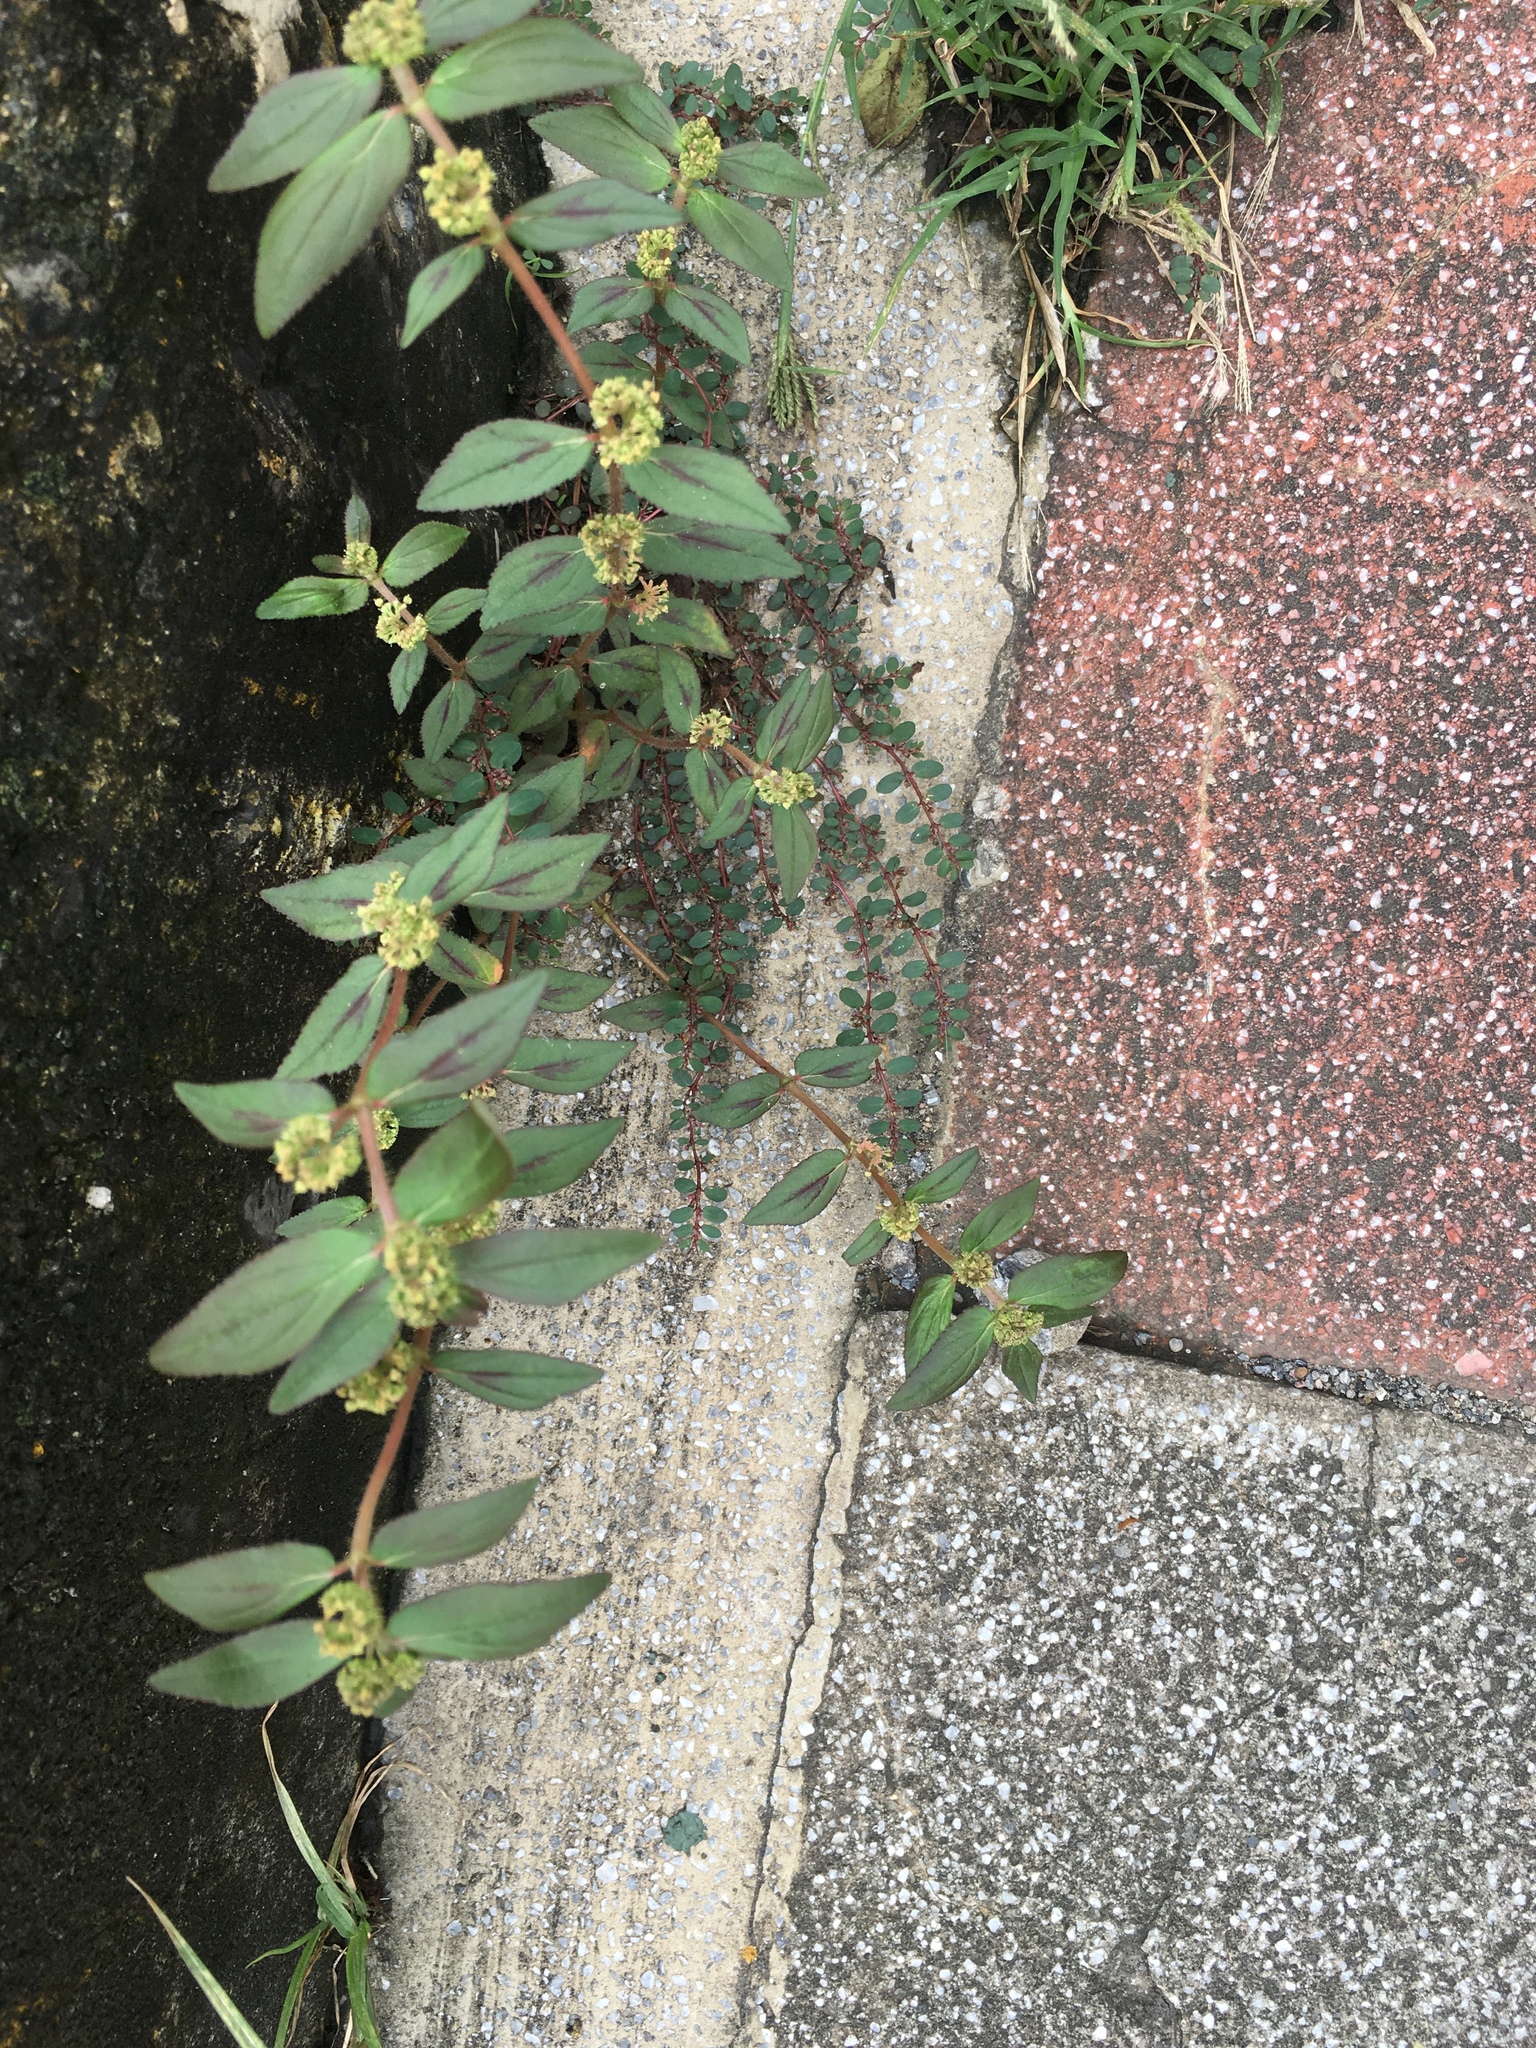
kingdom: Plantae
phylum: Tracheophyta
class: Magnoliopsida
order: Malpighiales
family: Euphorbiaceae
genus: Euphorbia
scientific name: Euphorbia hirta
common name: Pillpod sandmat
